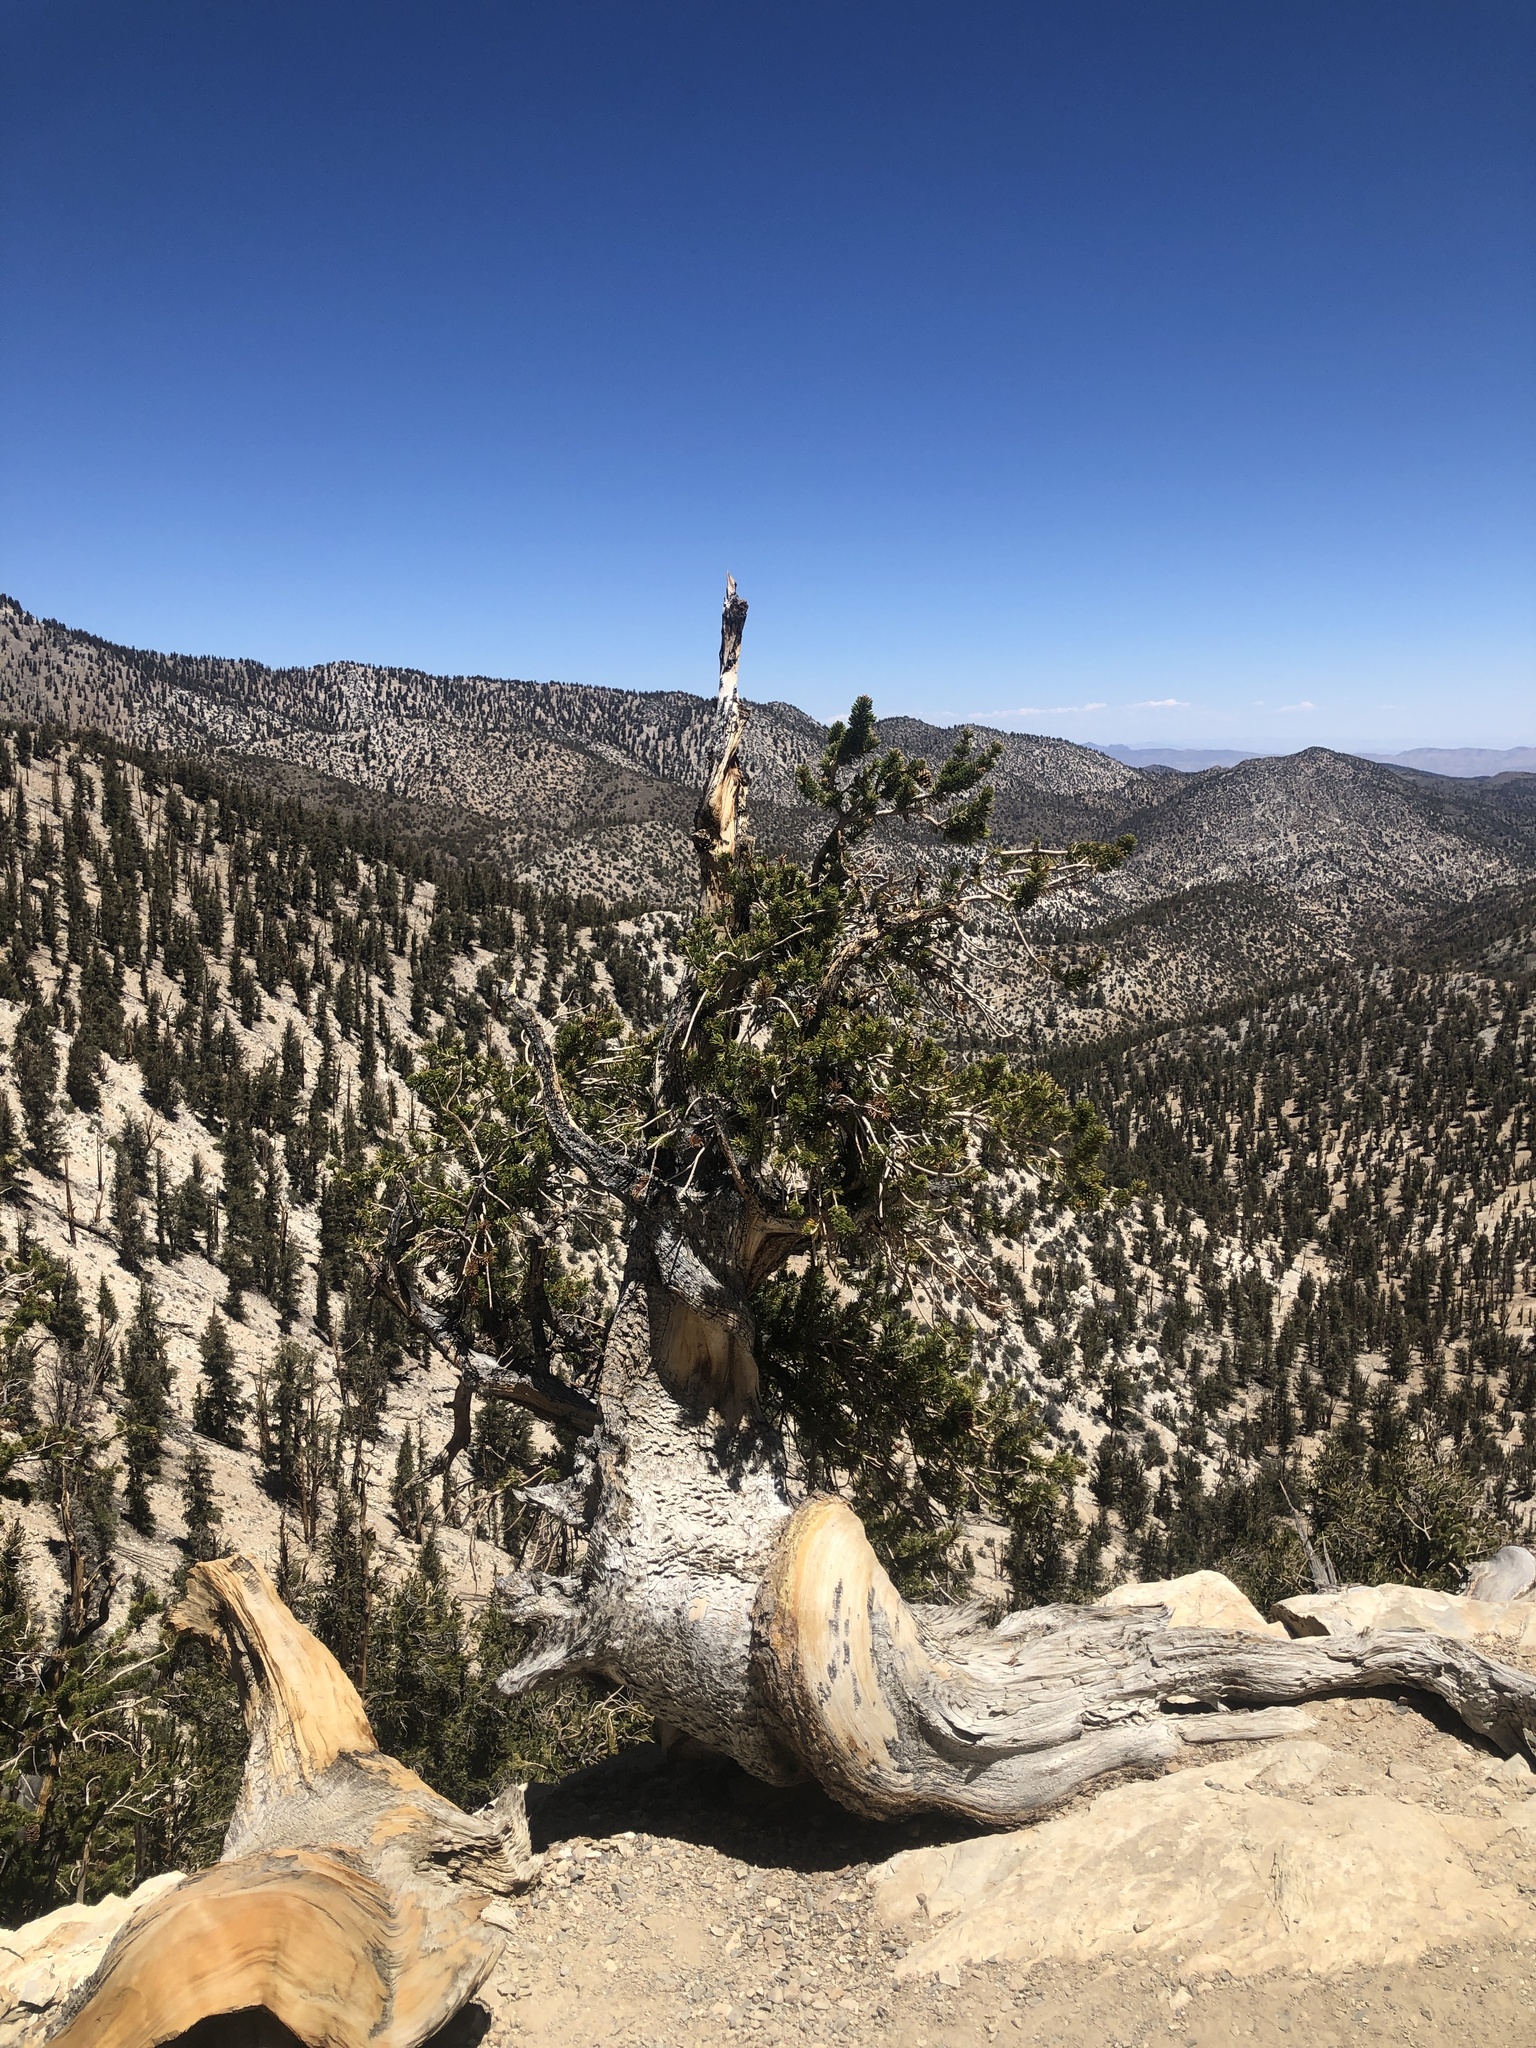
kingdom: Plantae
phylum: Tracheophyta
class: Pinopsida
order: Pinales
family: Pinaceae
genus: Pinus
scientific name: Pinus longaeva
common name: Intermountain bristlecone pine
